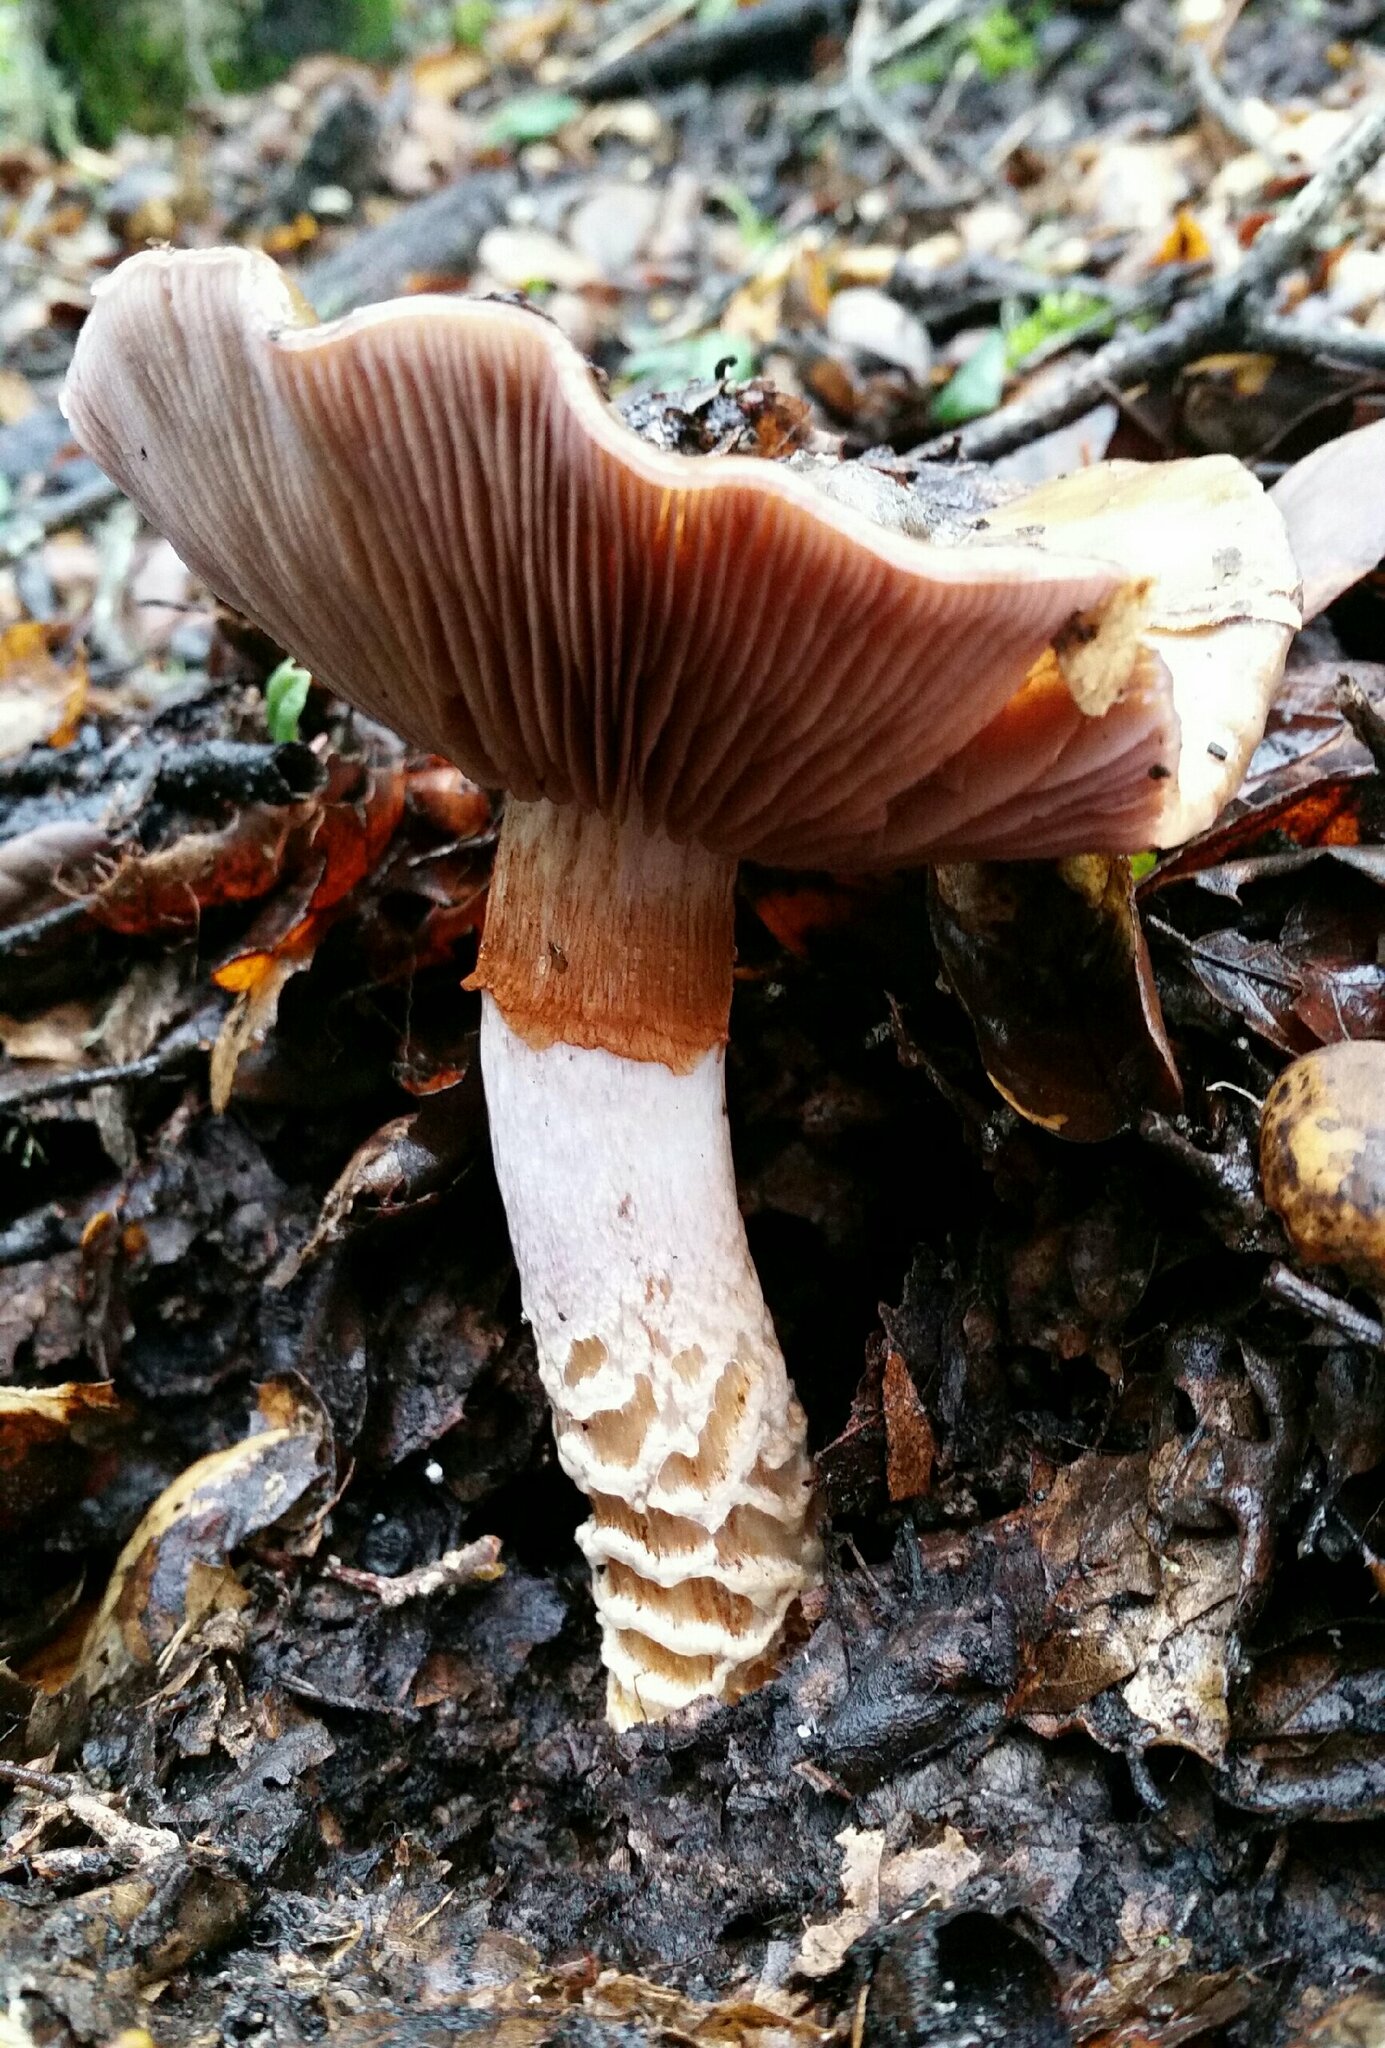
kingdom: Fungi
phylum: Basidiomycota
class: Agaricomycetes
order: Agaricales
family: Cortinariaceae
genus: Cortinarius
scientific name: Cortinarius glutinosoarmillatus
